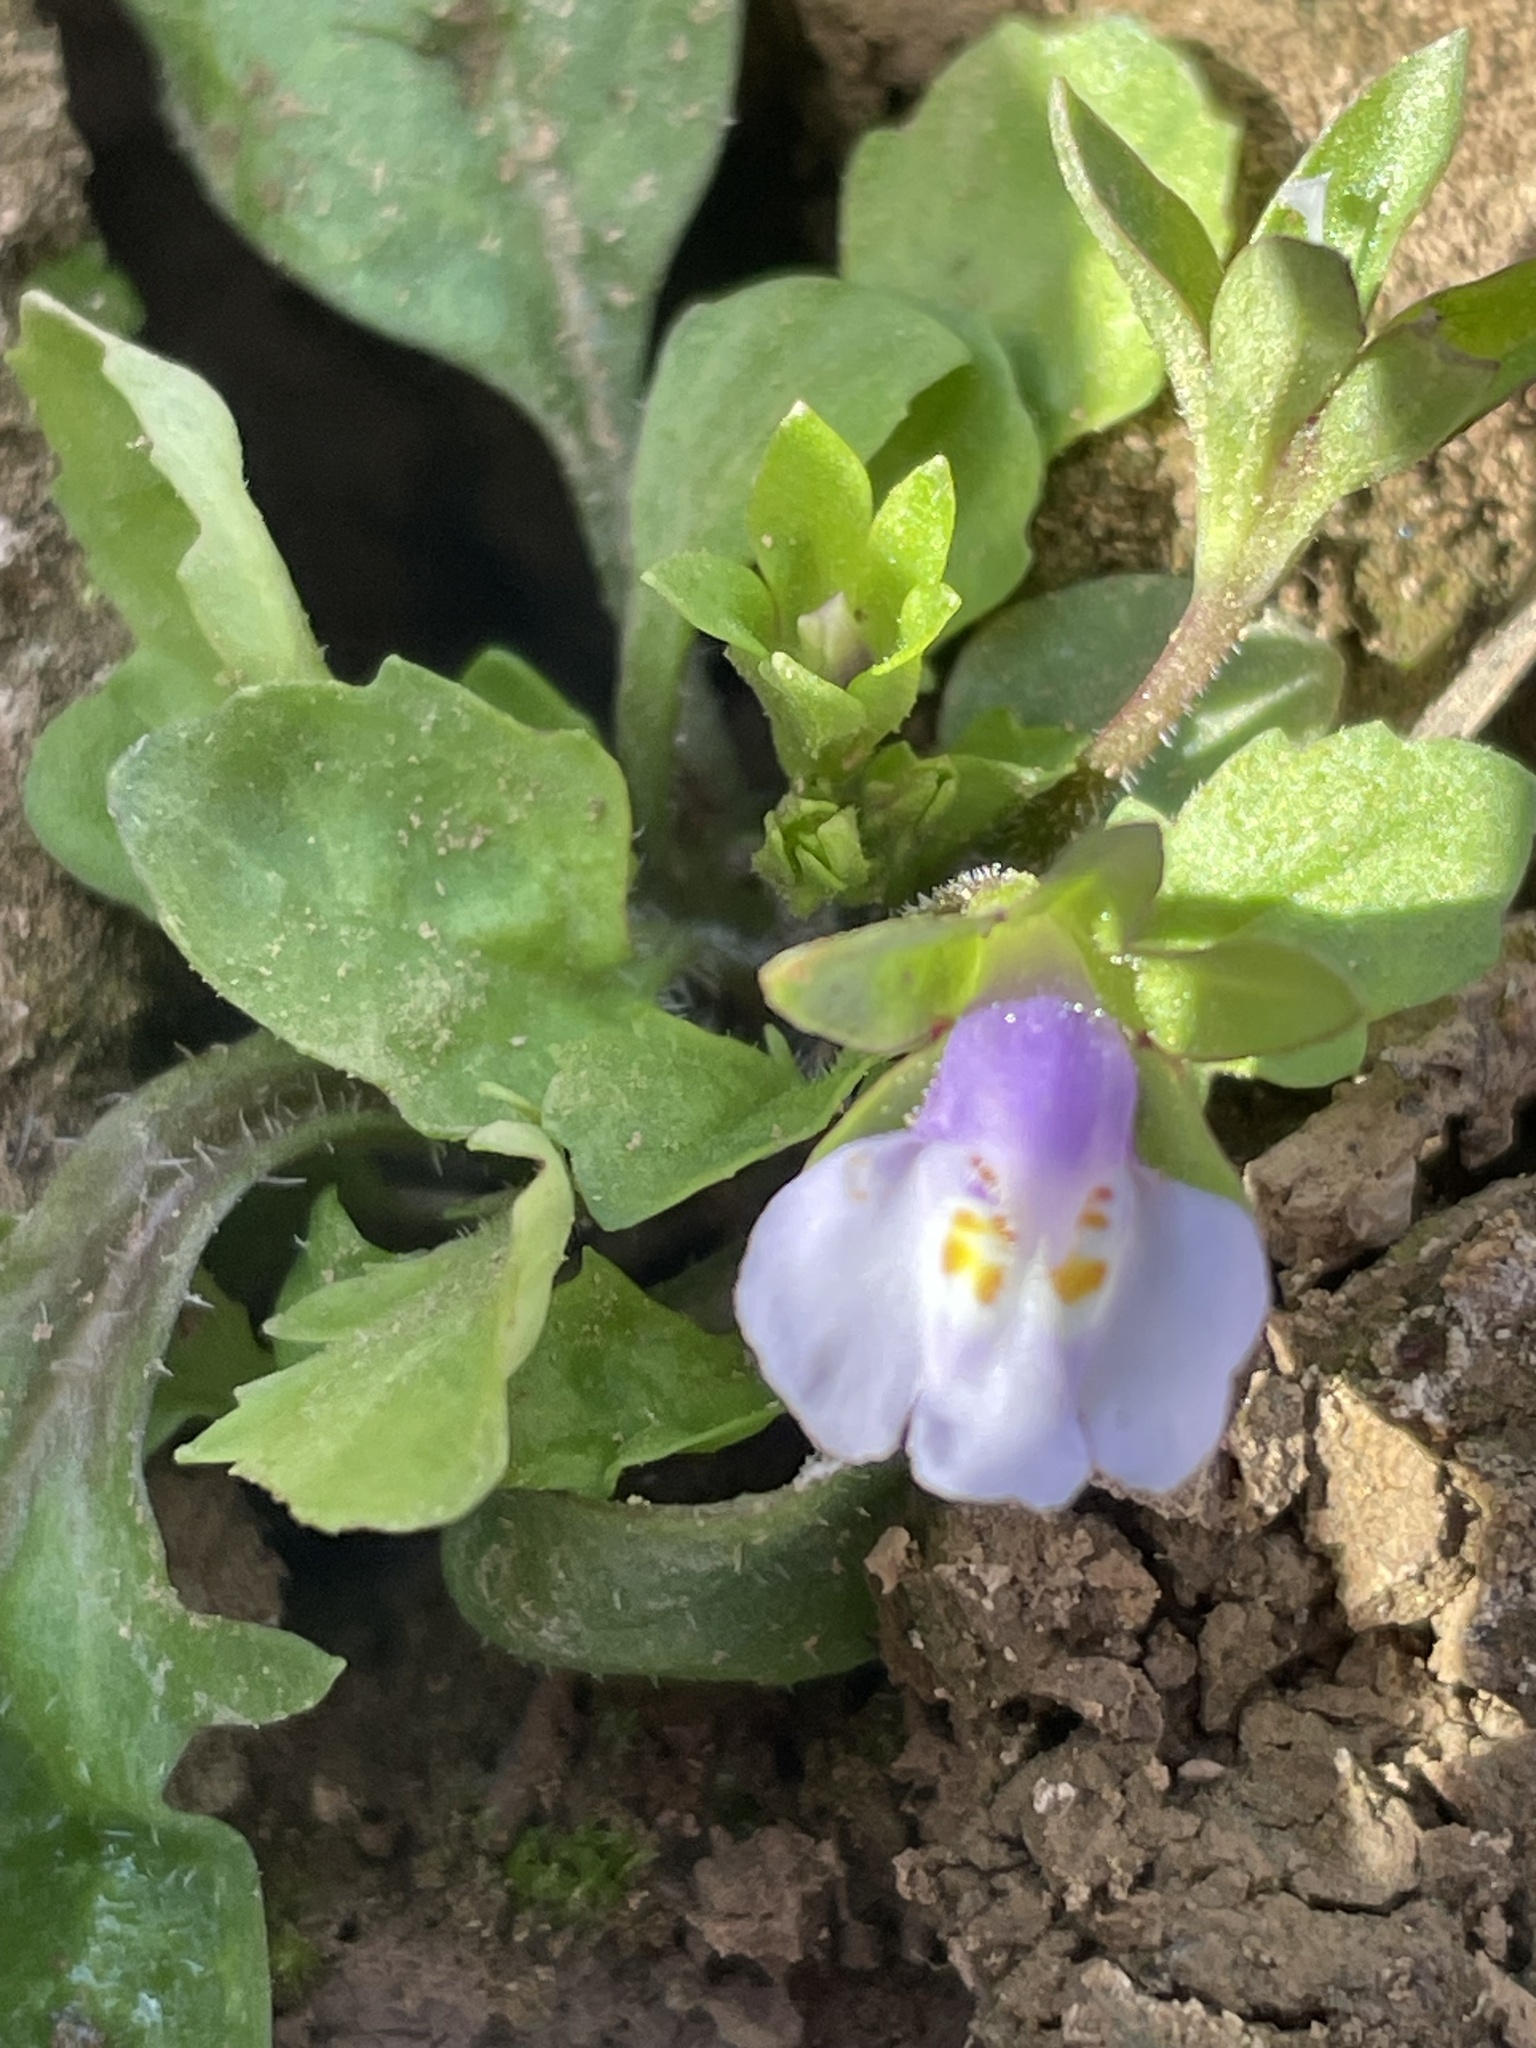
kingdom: Plantae
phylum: Tracheophyta
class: Magnoliopsida
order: Lamiales
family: Mazaceae
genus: Mazus
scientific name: Mazus pumilus
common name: Japanese mazus
